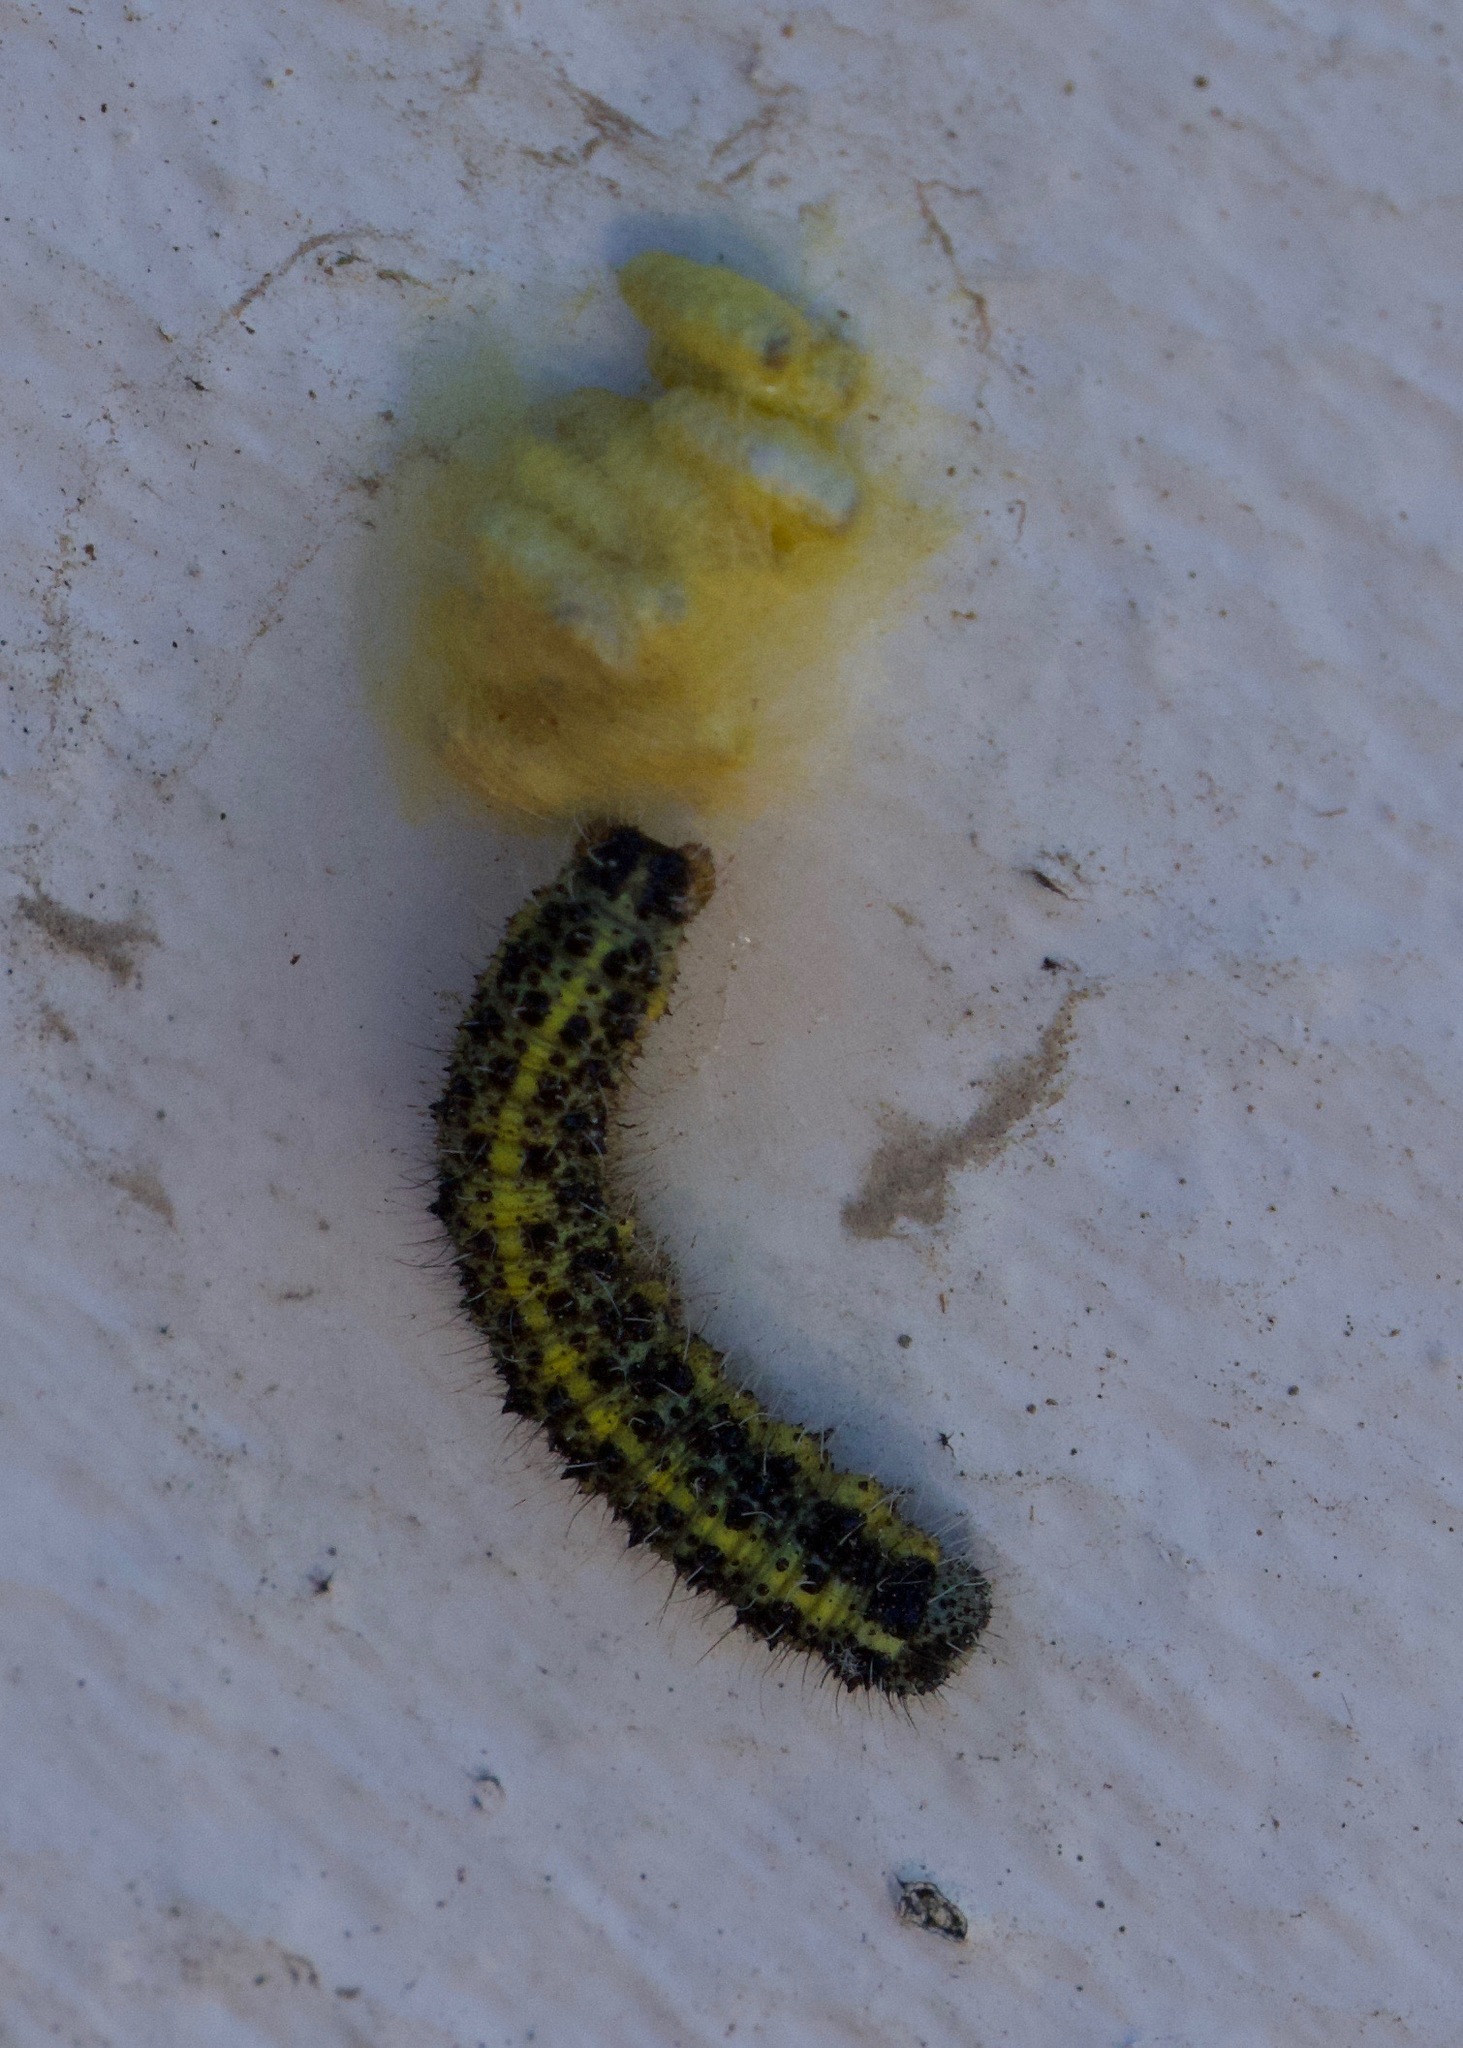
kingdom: Animalia
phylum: Arthropoda
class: Insecta
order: Lepidoptera
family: Pieridae
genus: Pieris
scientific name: Pieris brassicae
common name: Large white
